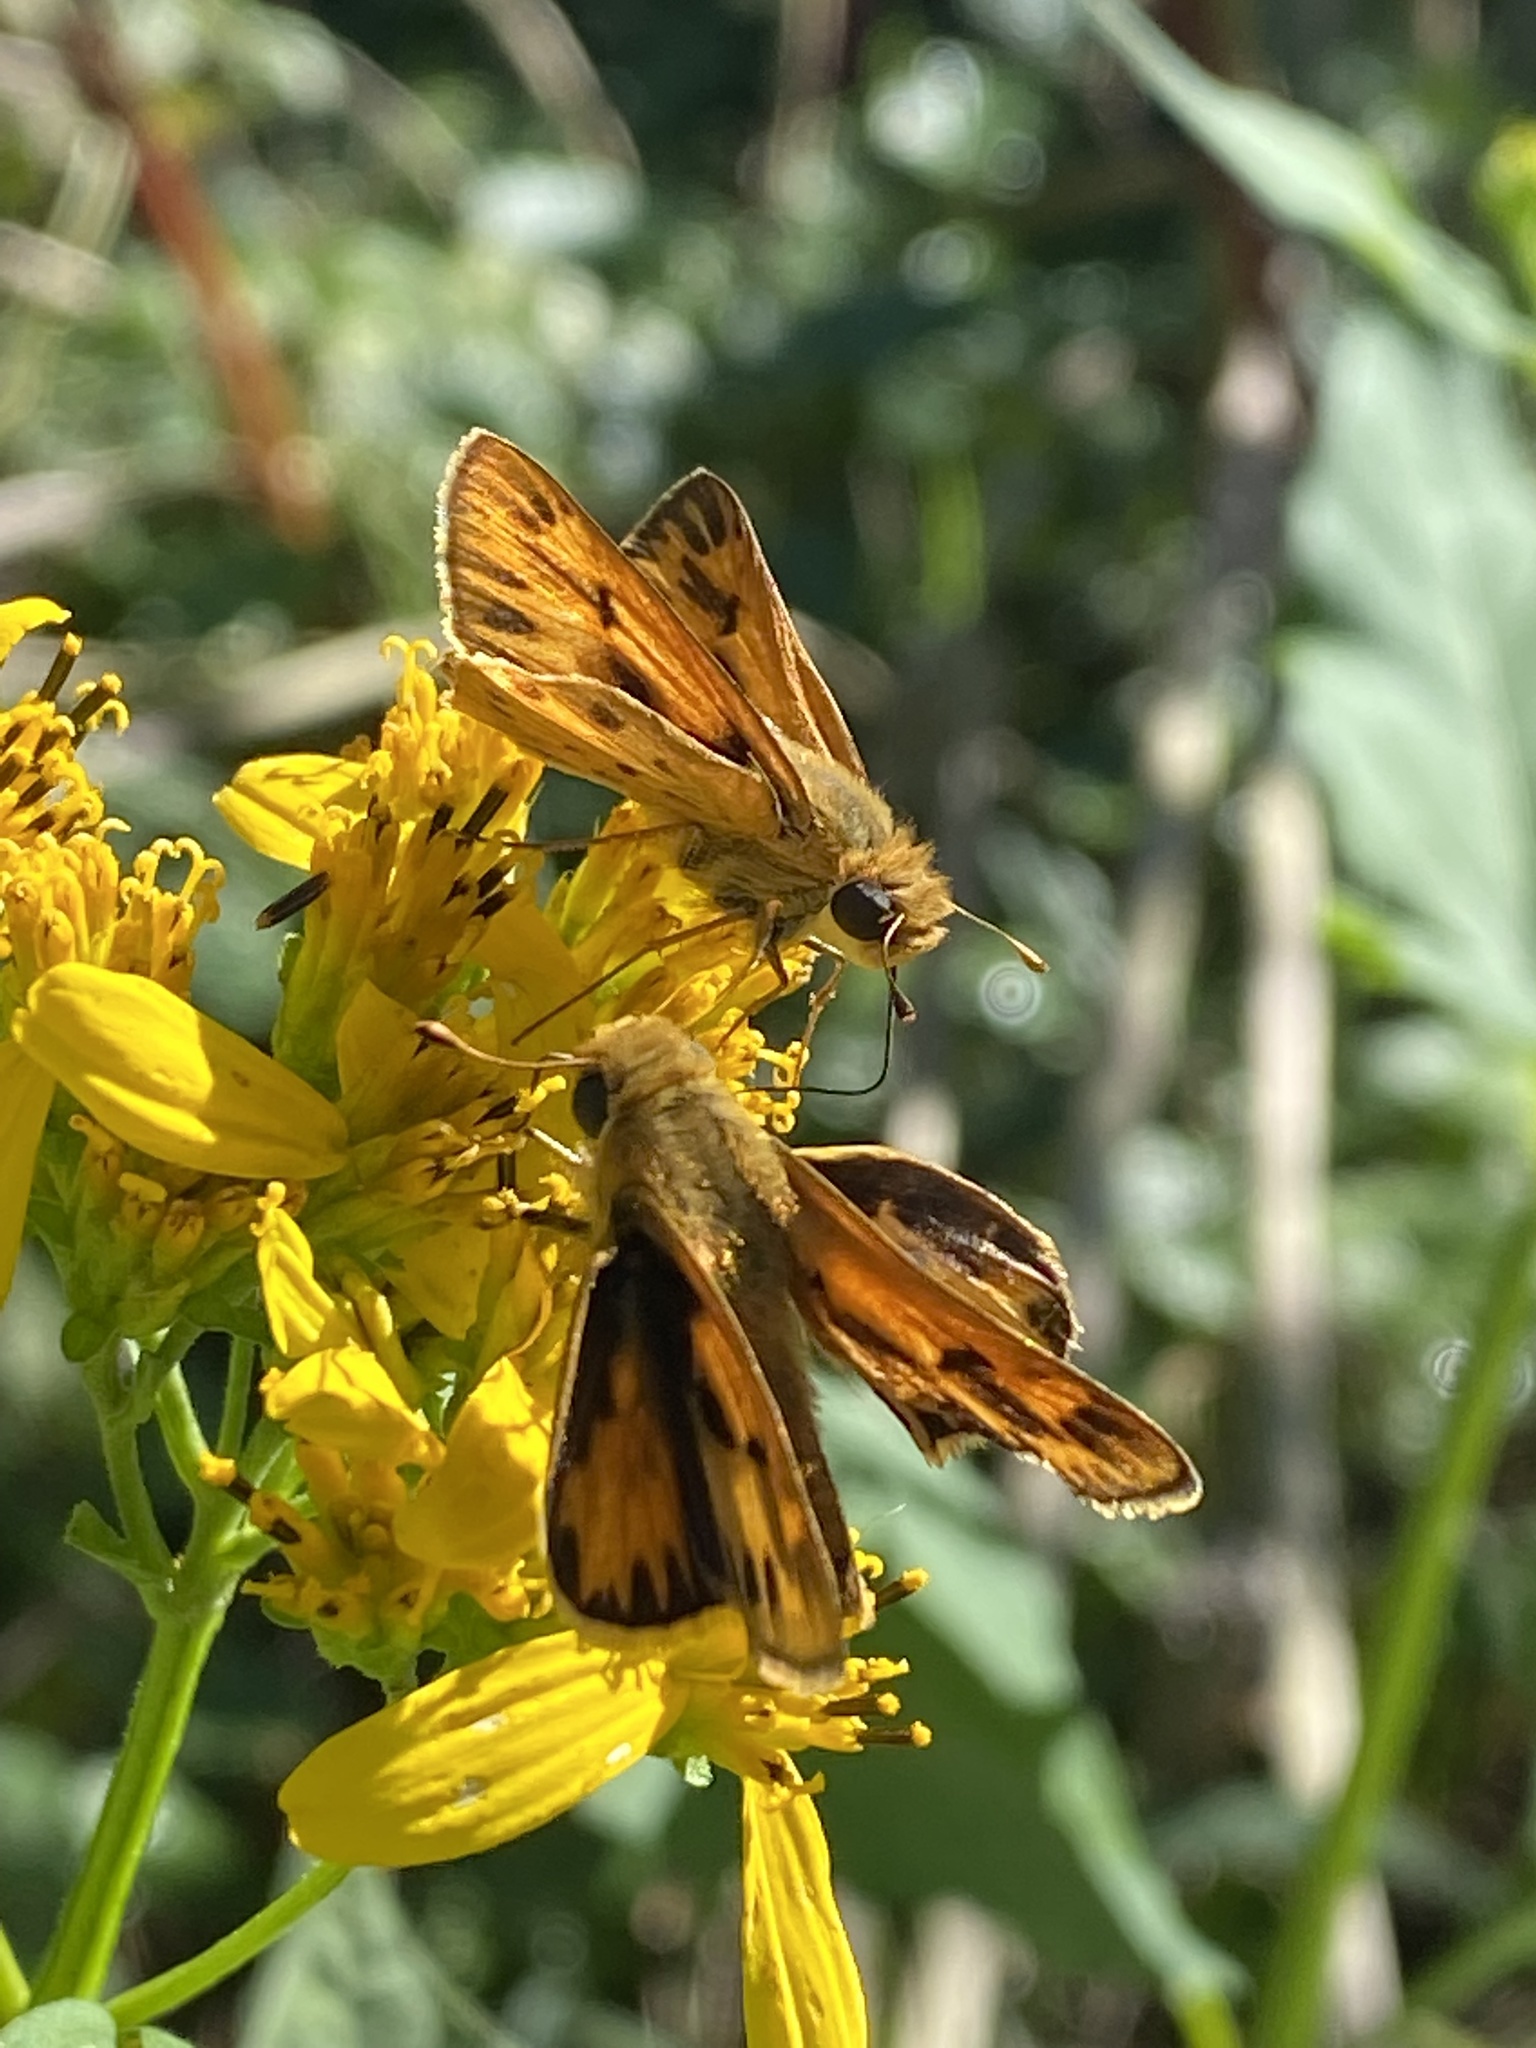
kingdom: Animalia
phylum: Arthropoda
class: Insecta
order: Lepidoptera
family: Hesperiidae
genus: Hylephila
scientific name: Hylephila phyleus
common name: Fiery skipper
